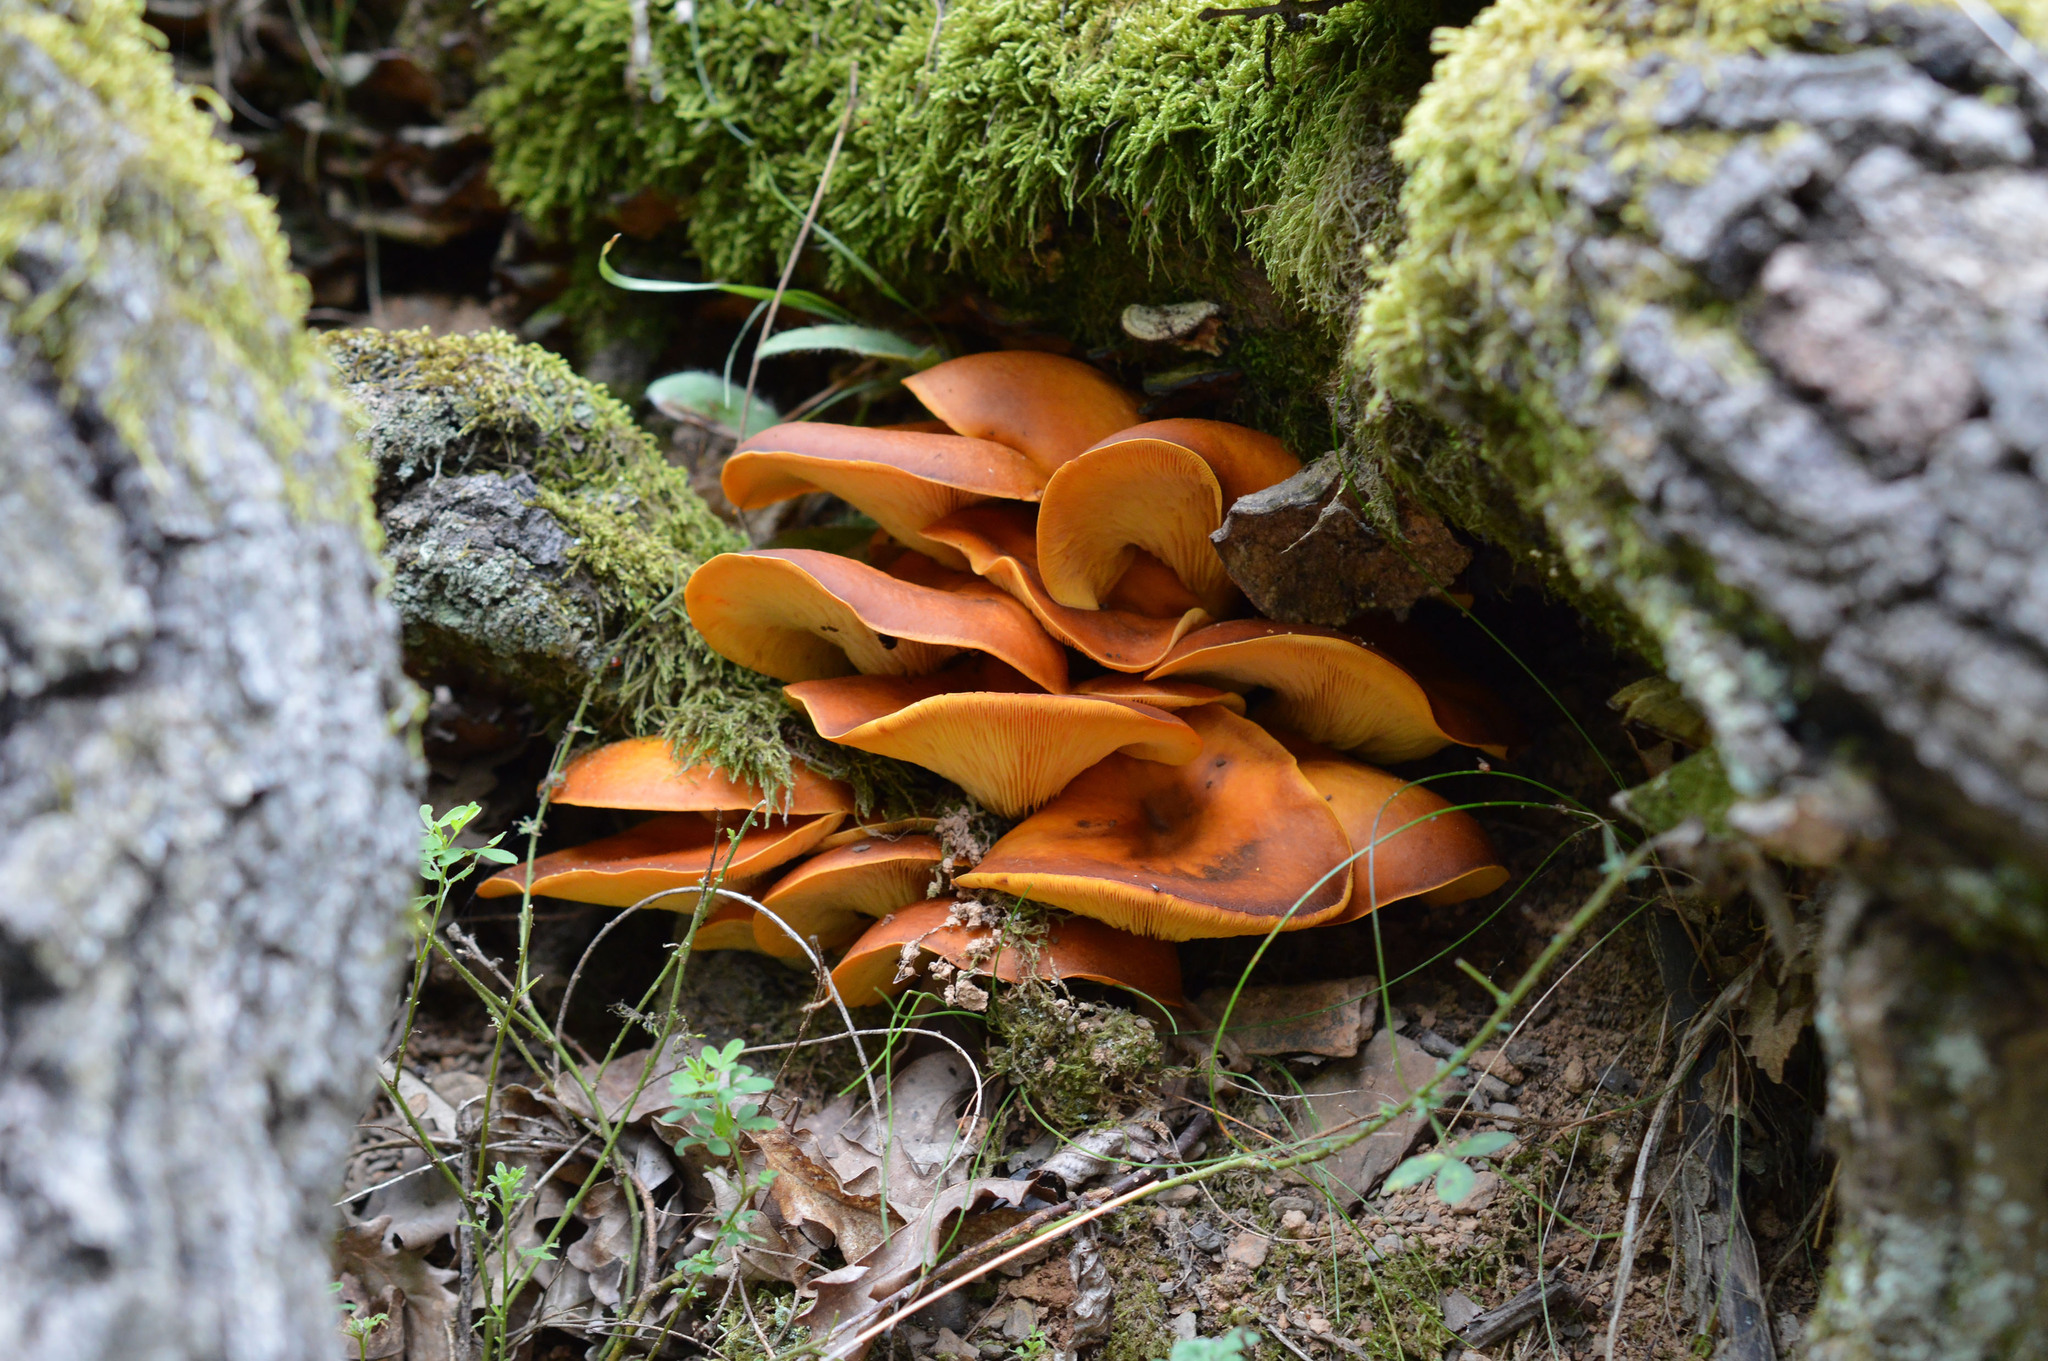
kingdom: Fungi
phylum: Basidiomycota
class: Agaricomycetes
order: Agaricales
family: Omphalotaceae
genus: Omphalotus
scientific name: Omphalotus olearius
